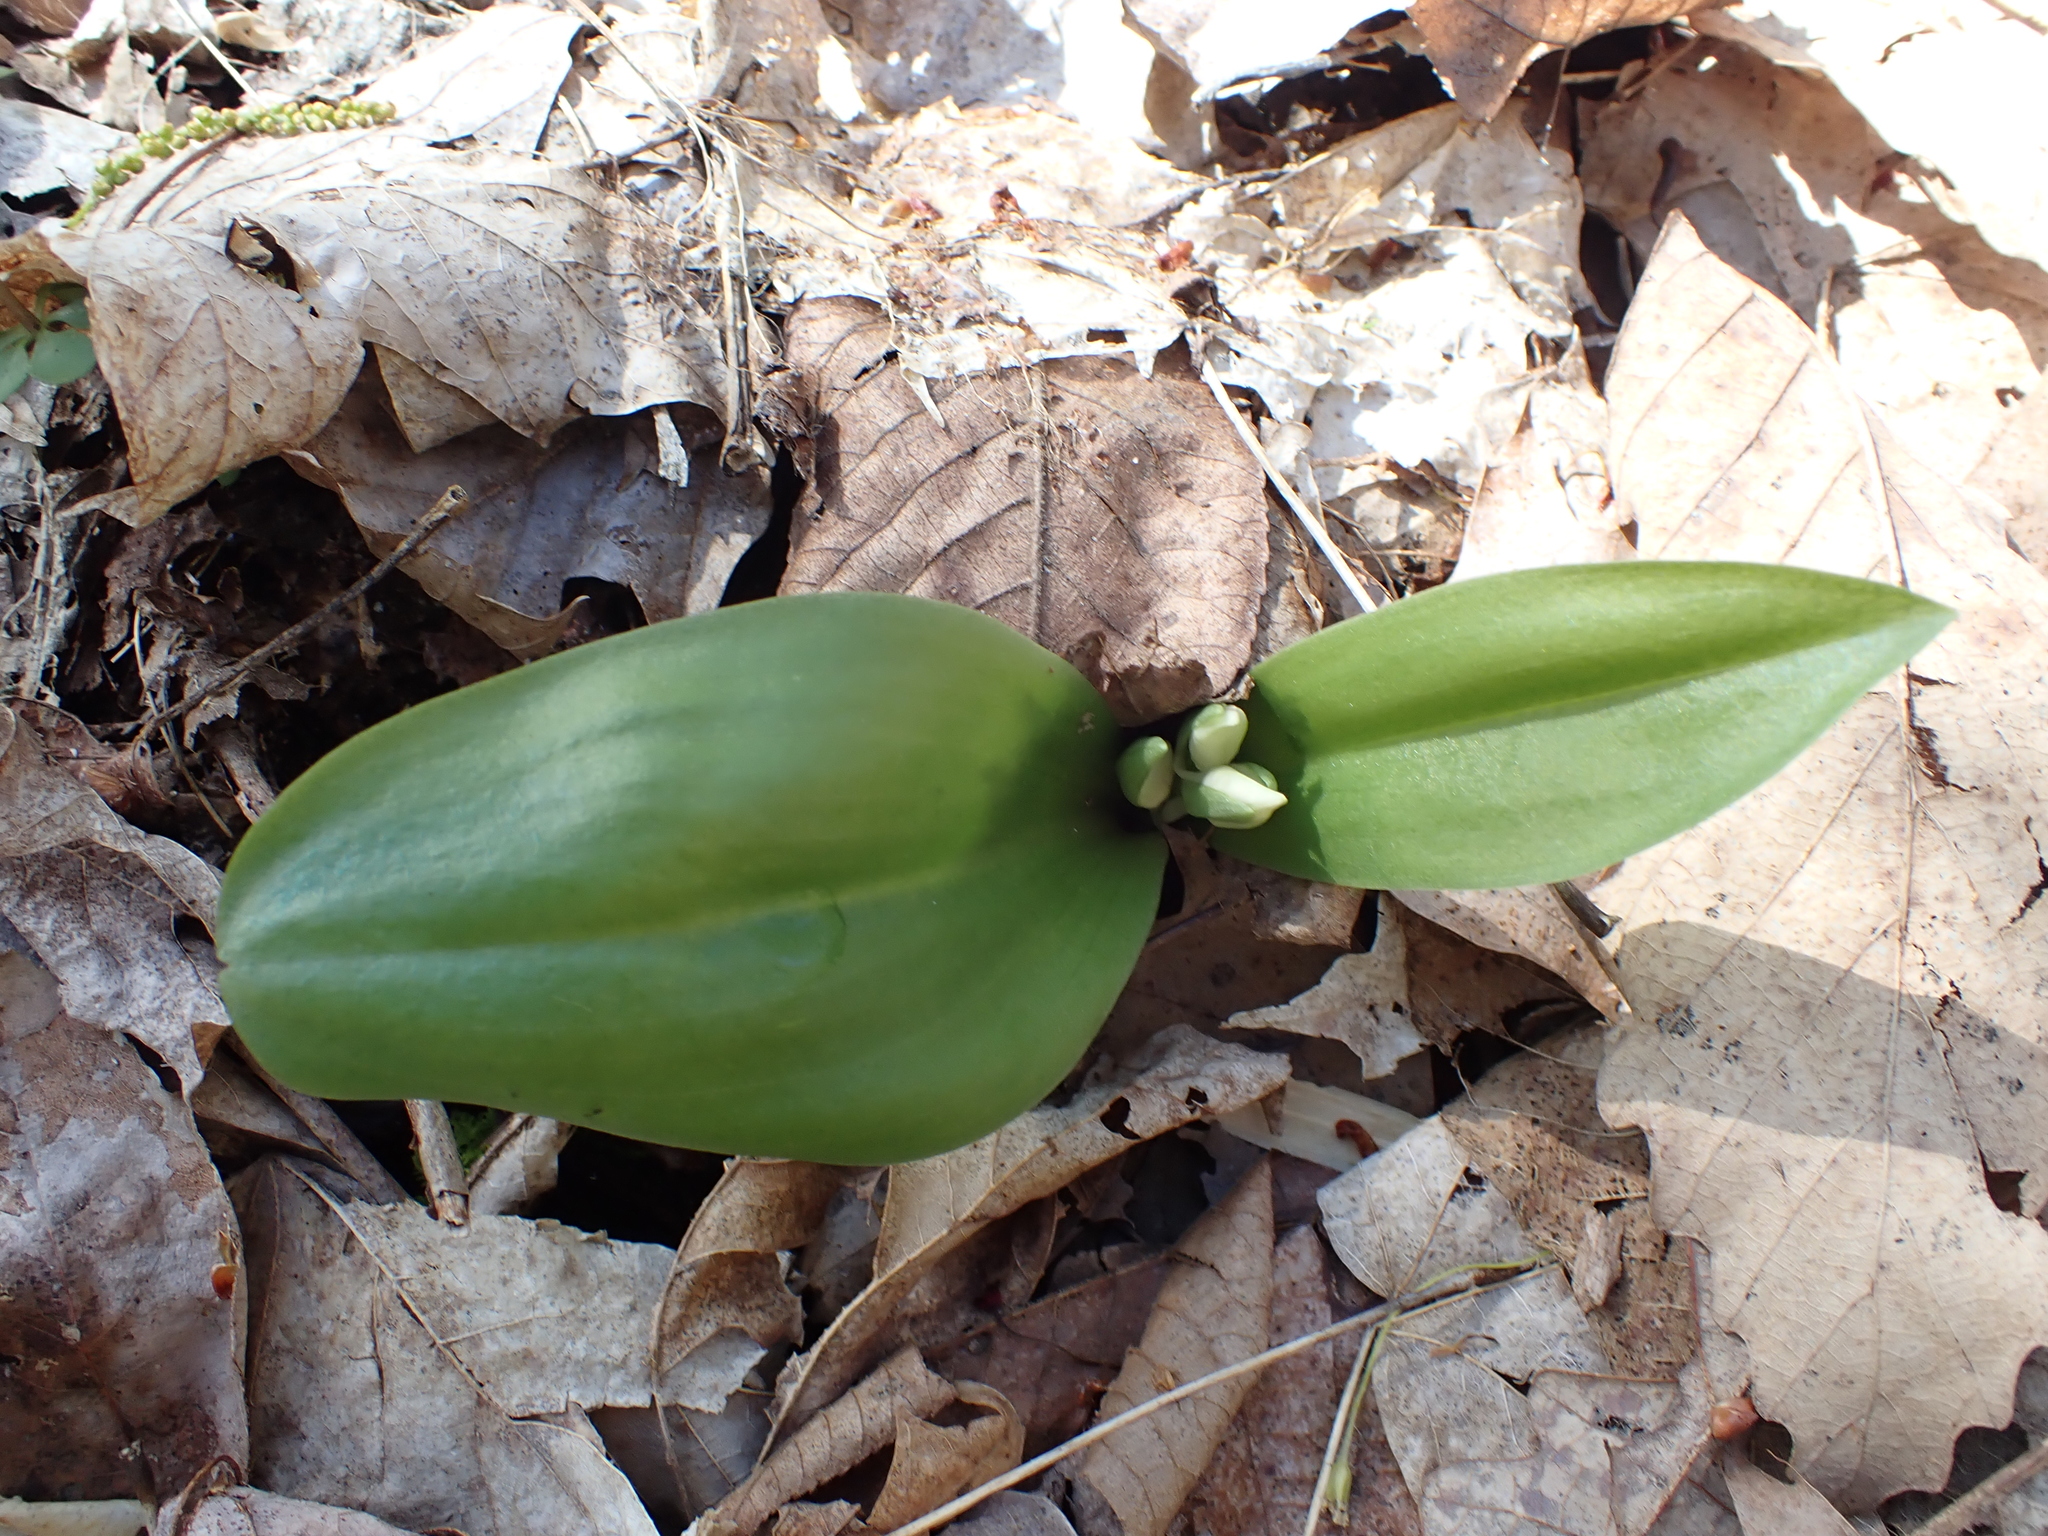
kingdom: Plantae
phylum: Tracheophyta
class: Liliopsida
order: Asparagales
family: Orchidaceae
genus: Galearis
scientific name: Galearis spectabilis
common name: Purple-hooded orchis
